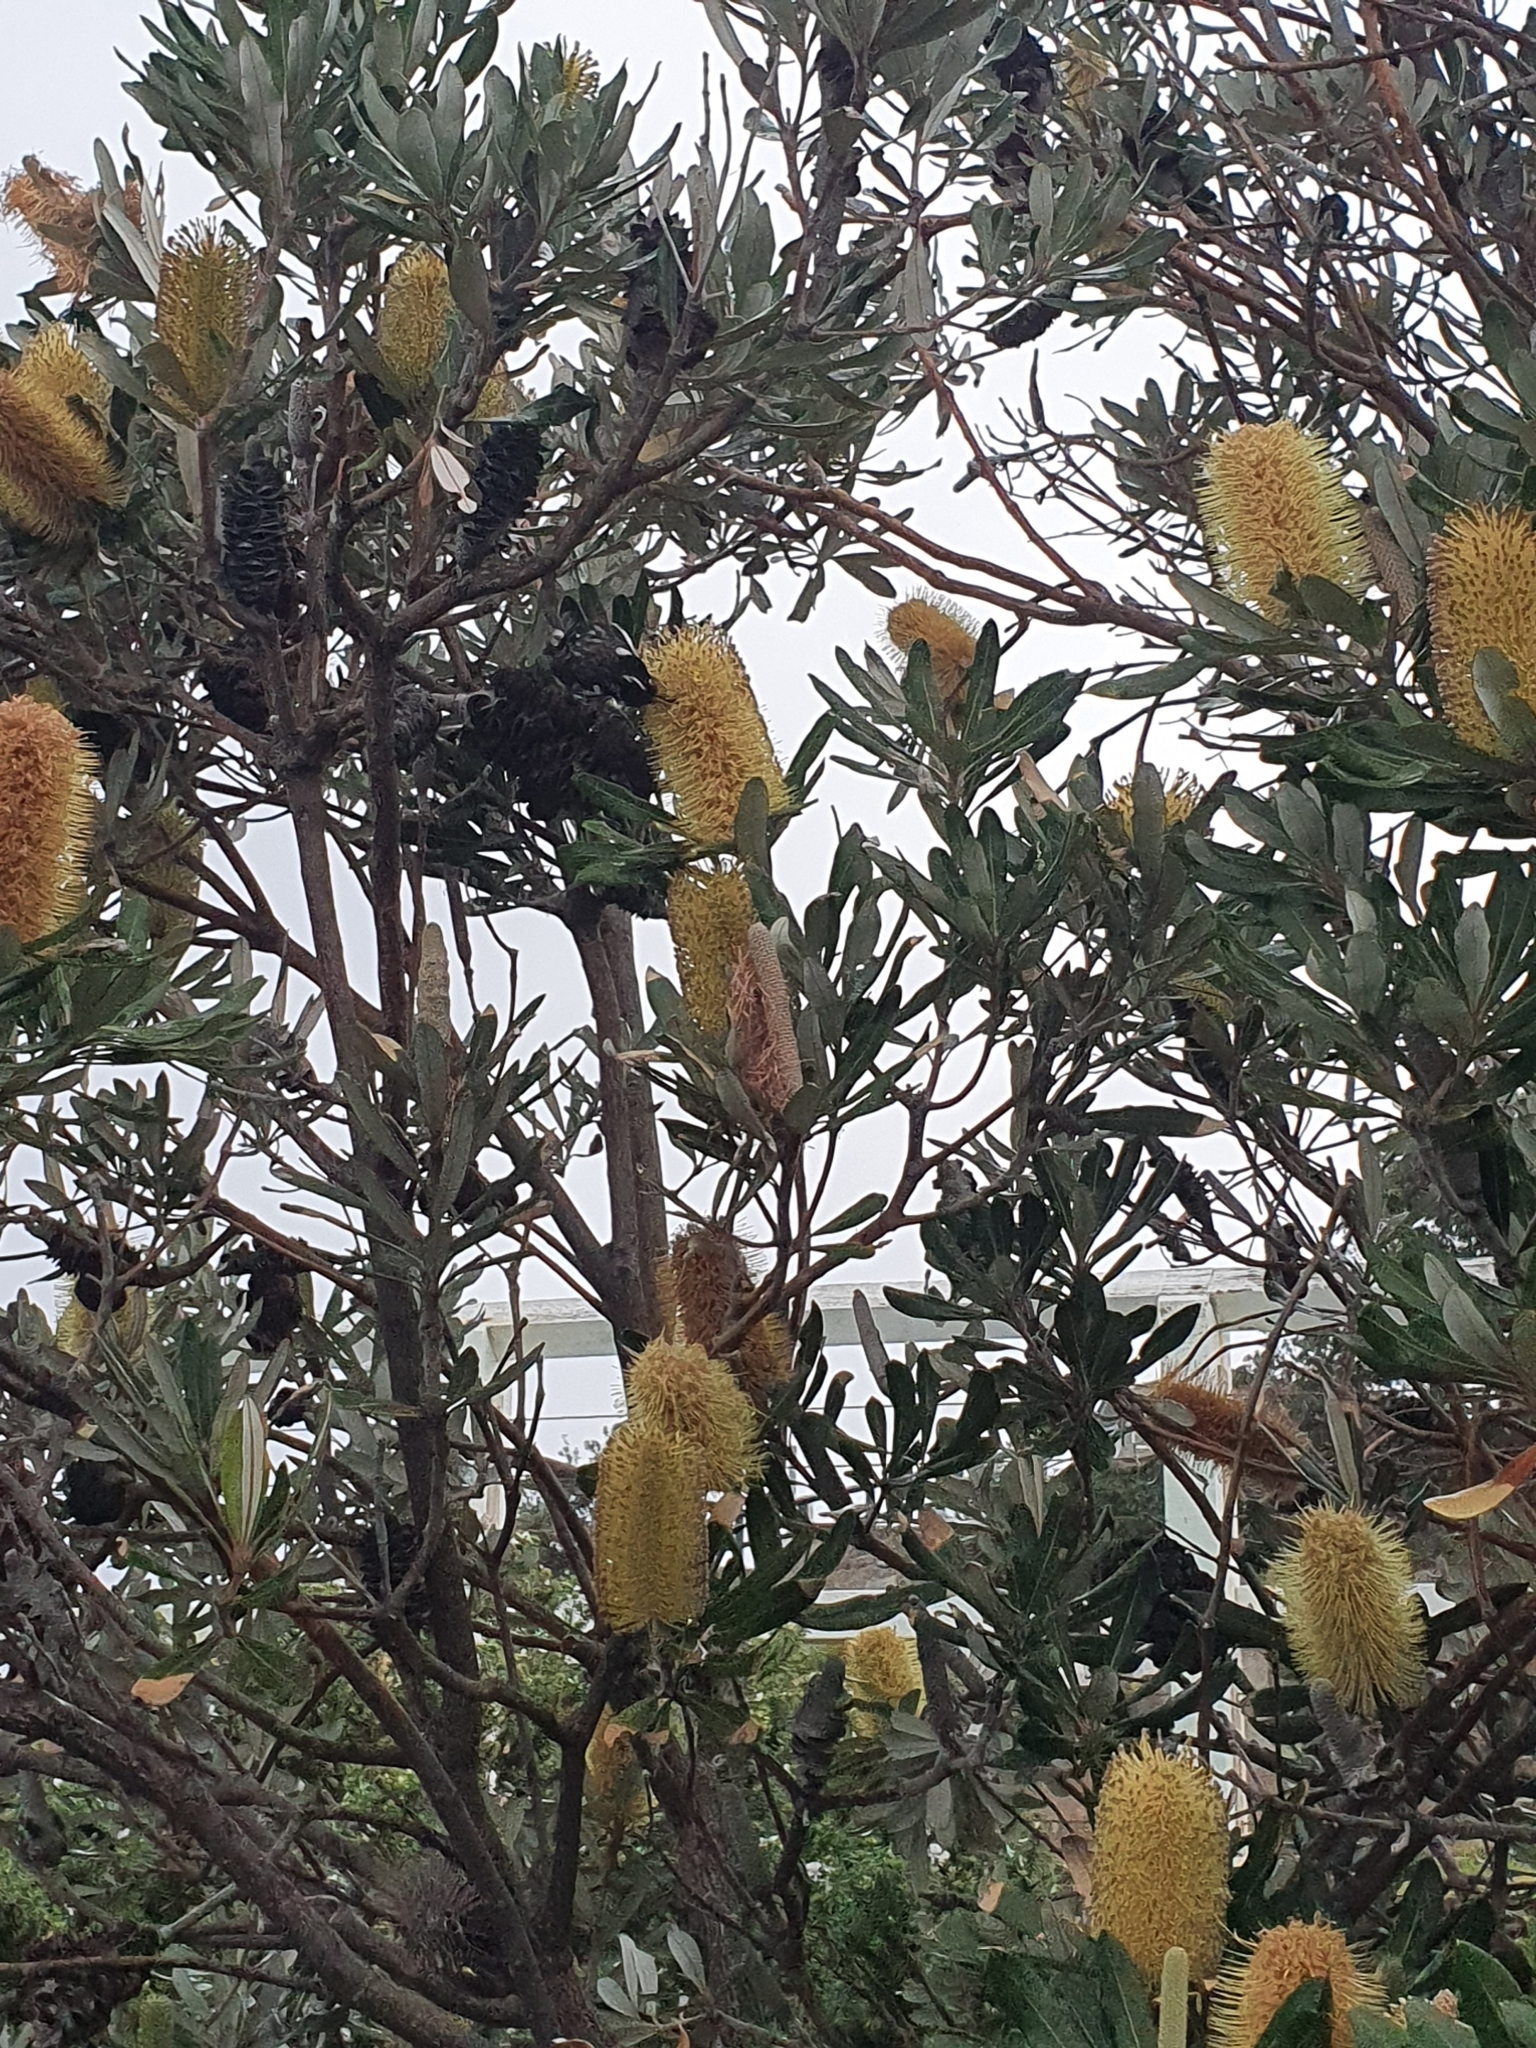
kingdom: Animalia
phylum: Chordata
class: Aves
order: Passeriformes
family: Meliphagidae
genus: Phylidonyris
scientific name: Phylidonyris novaehollandiae
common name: New holland honeyeater
